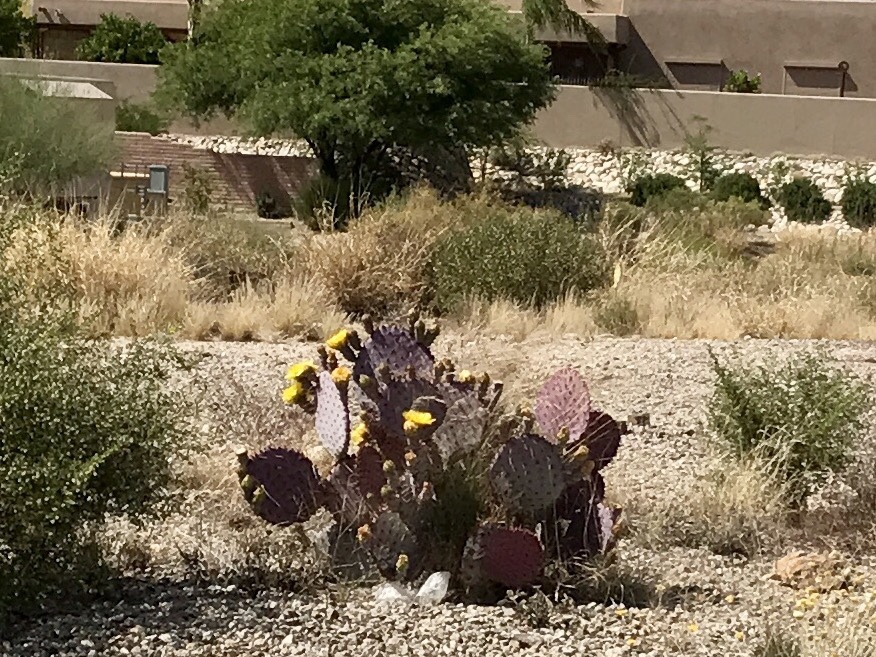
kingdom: Plantae
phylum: Tracheophyta
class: Magnoliopsida
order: Caryophyllales
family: Cactaceae
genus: Opuntia
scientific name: Opuntia gosseliniana
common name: Violet prickly-pear
